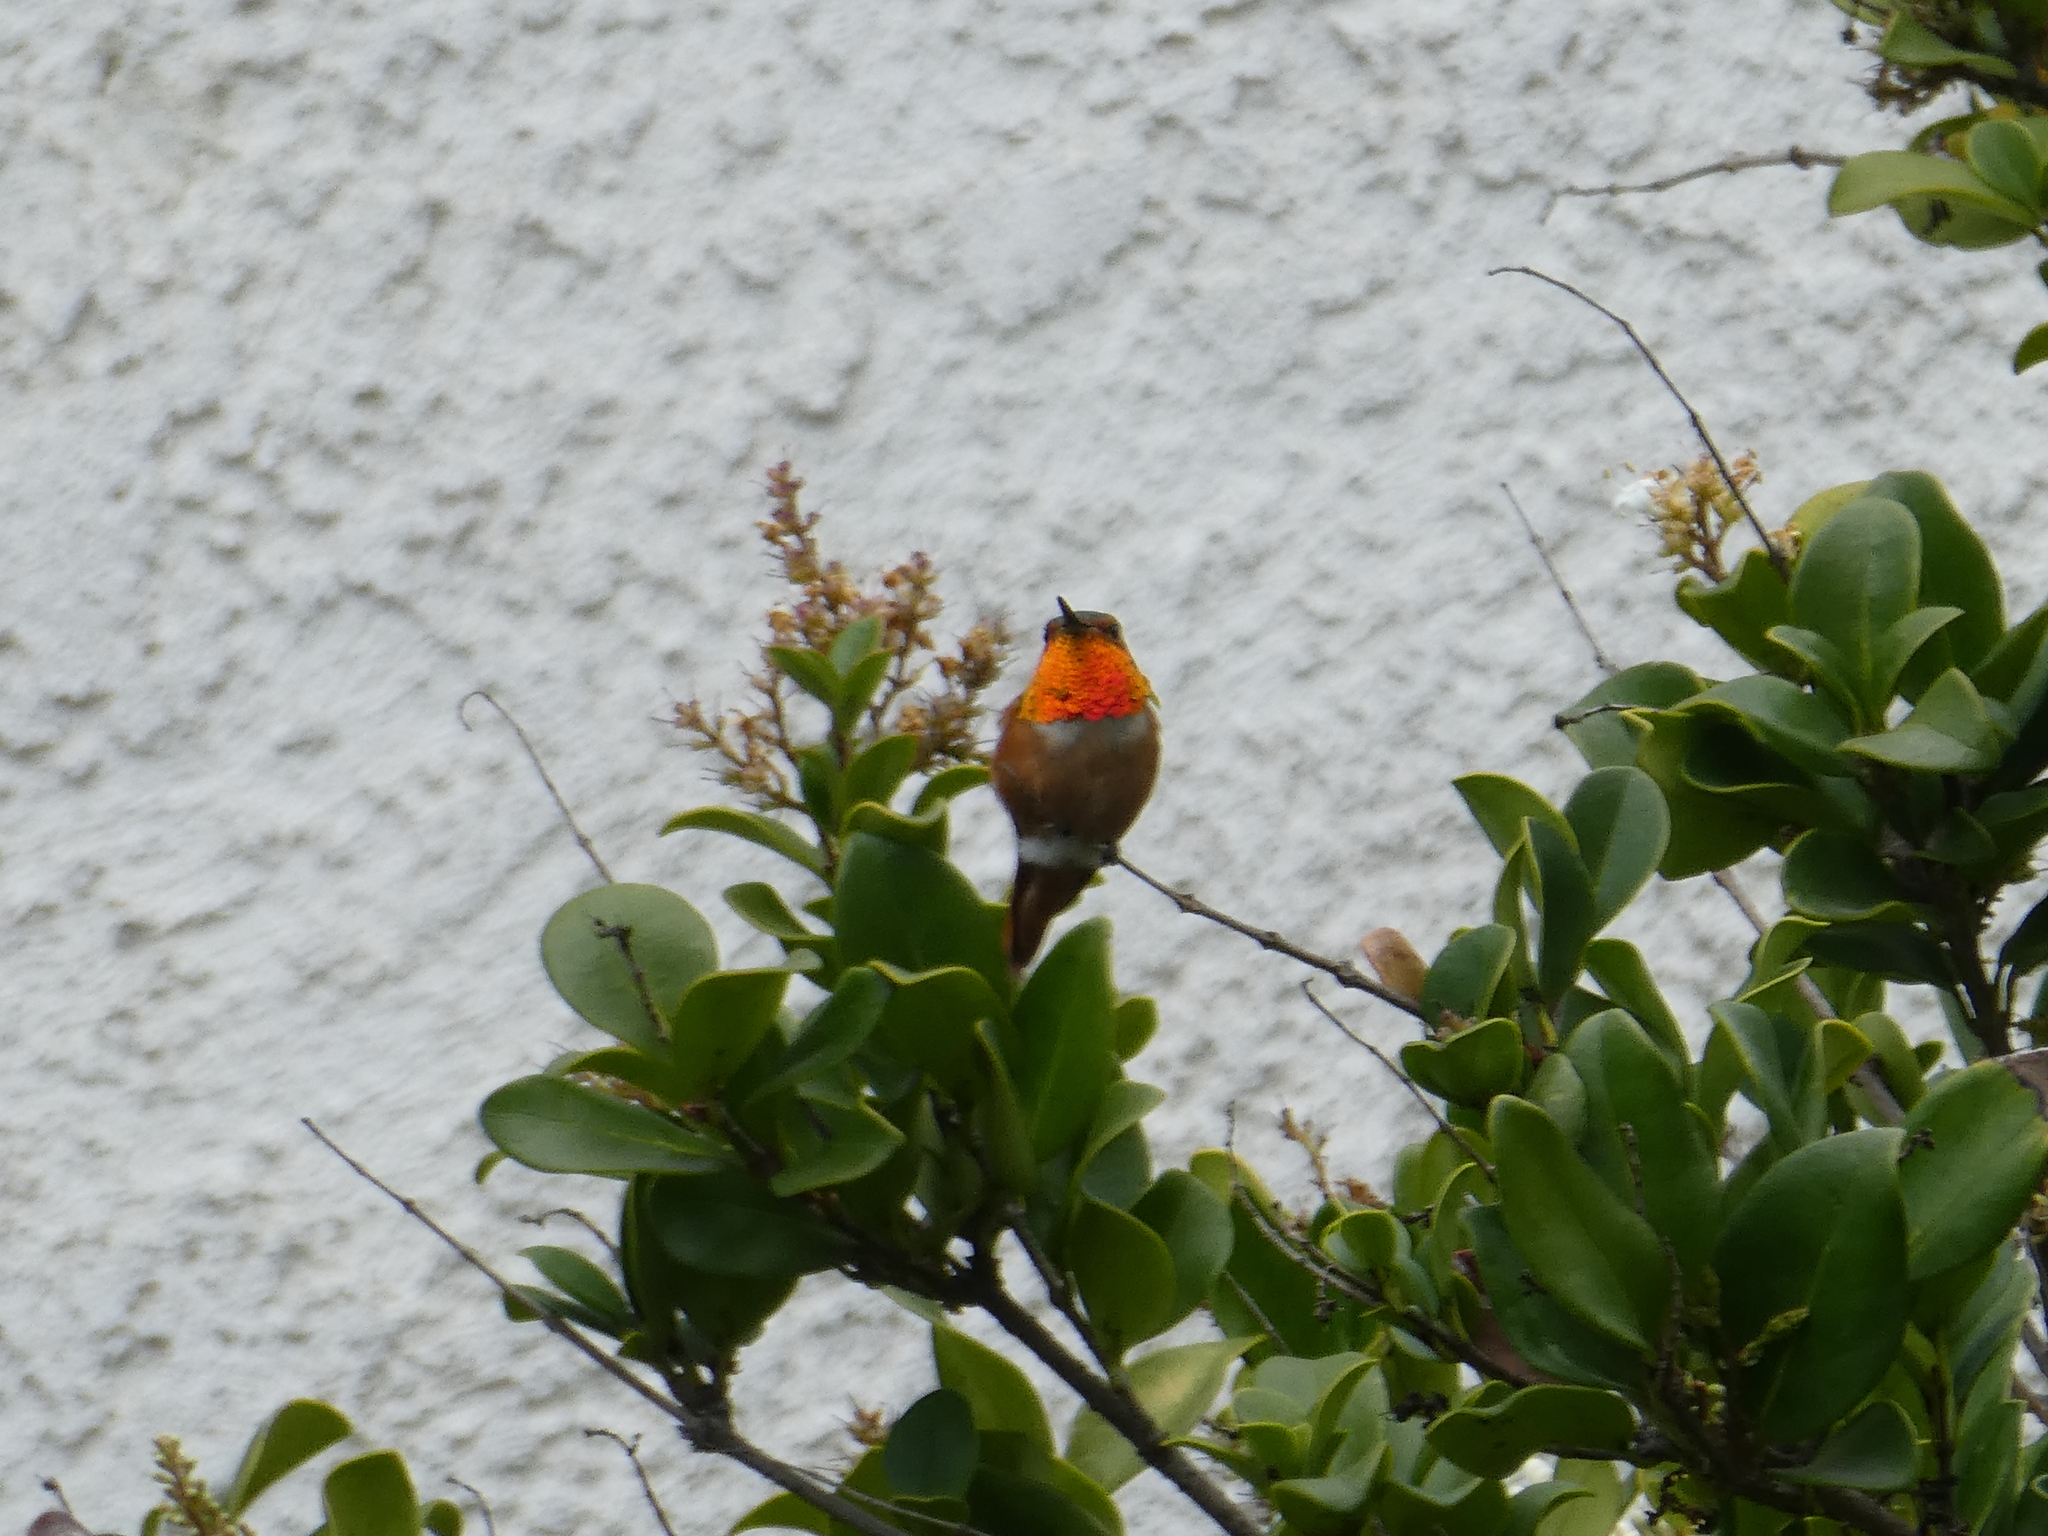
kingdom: Animalia
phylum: Chordata
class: Aves
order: Apodiformes
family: Trochilidae
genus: Selasphorus
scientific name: Selasphorus
